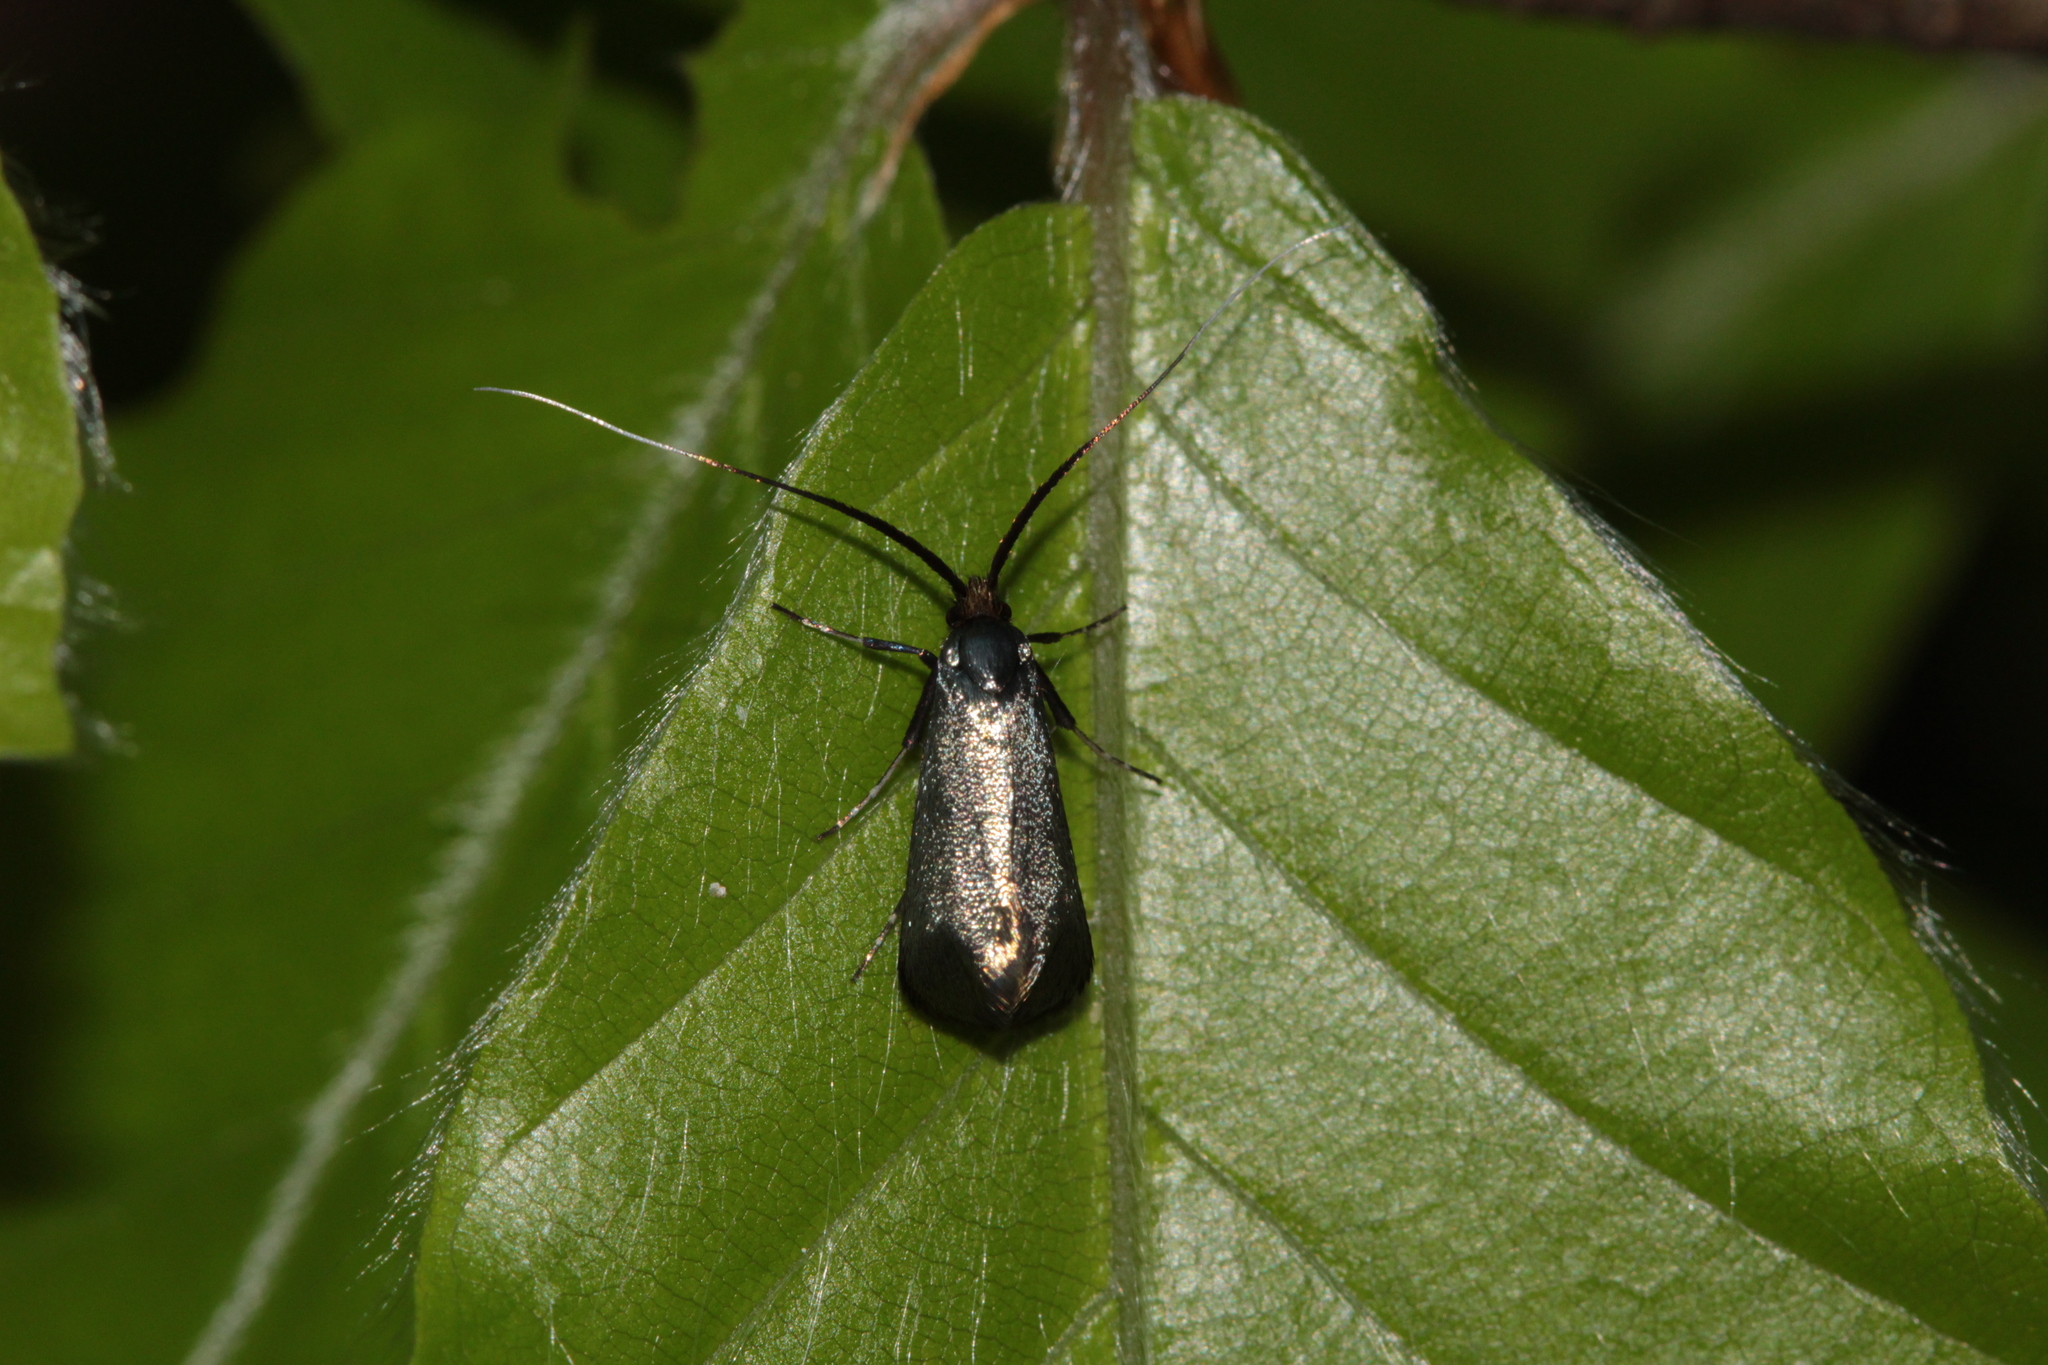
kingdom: Animalia
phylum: Arthropoda
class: Insecta
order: Lepidoptera
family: Adelidae
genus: Adela
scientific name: Adela viridella
